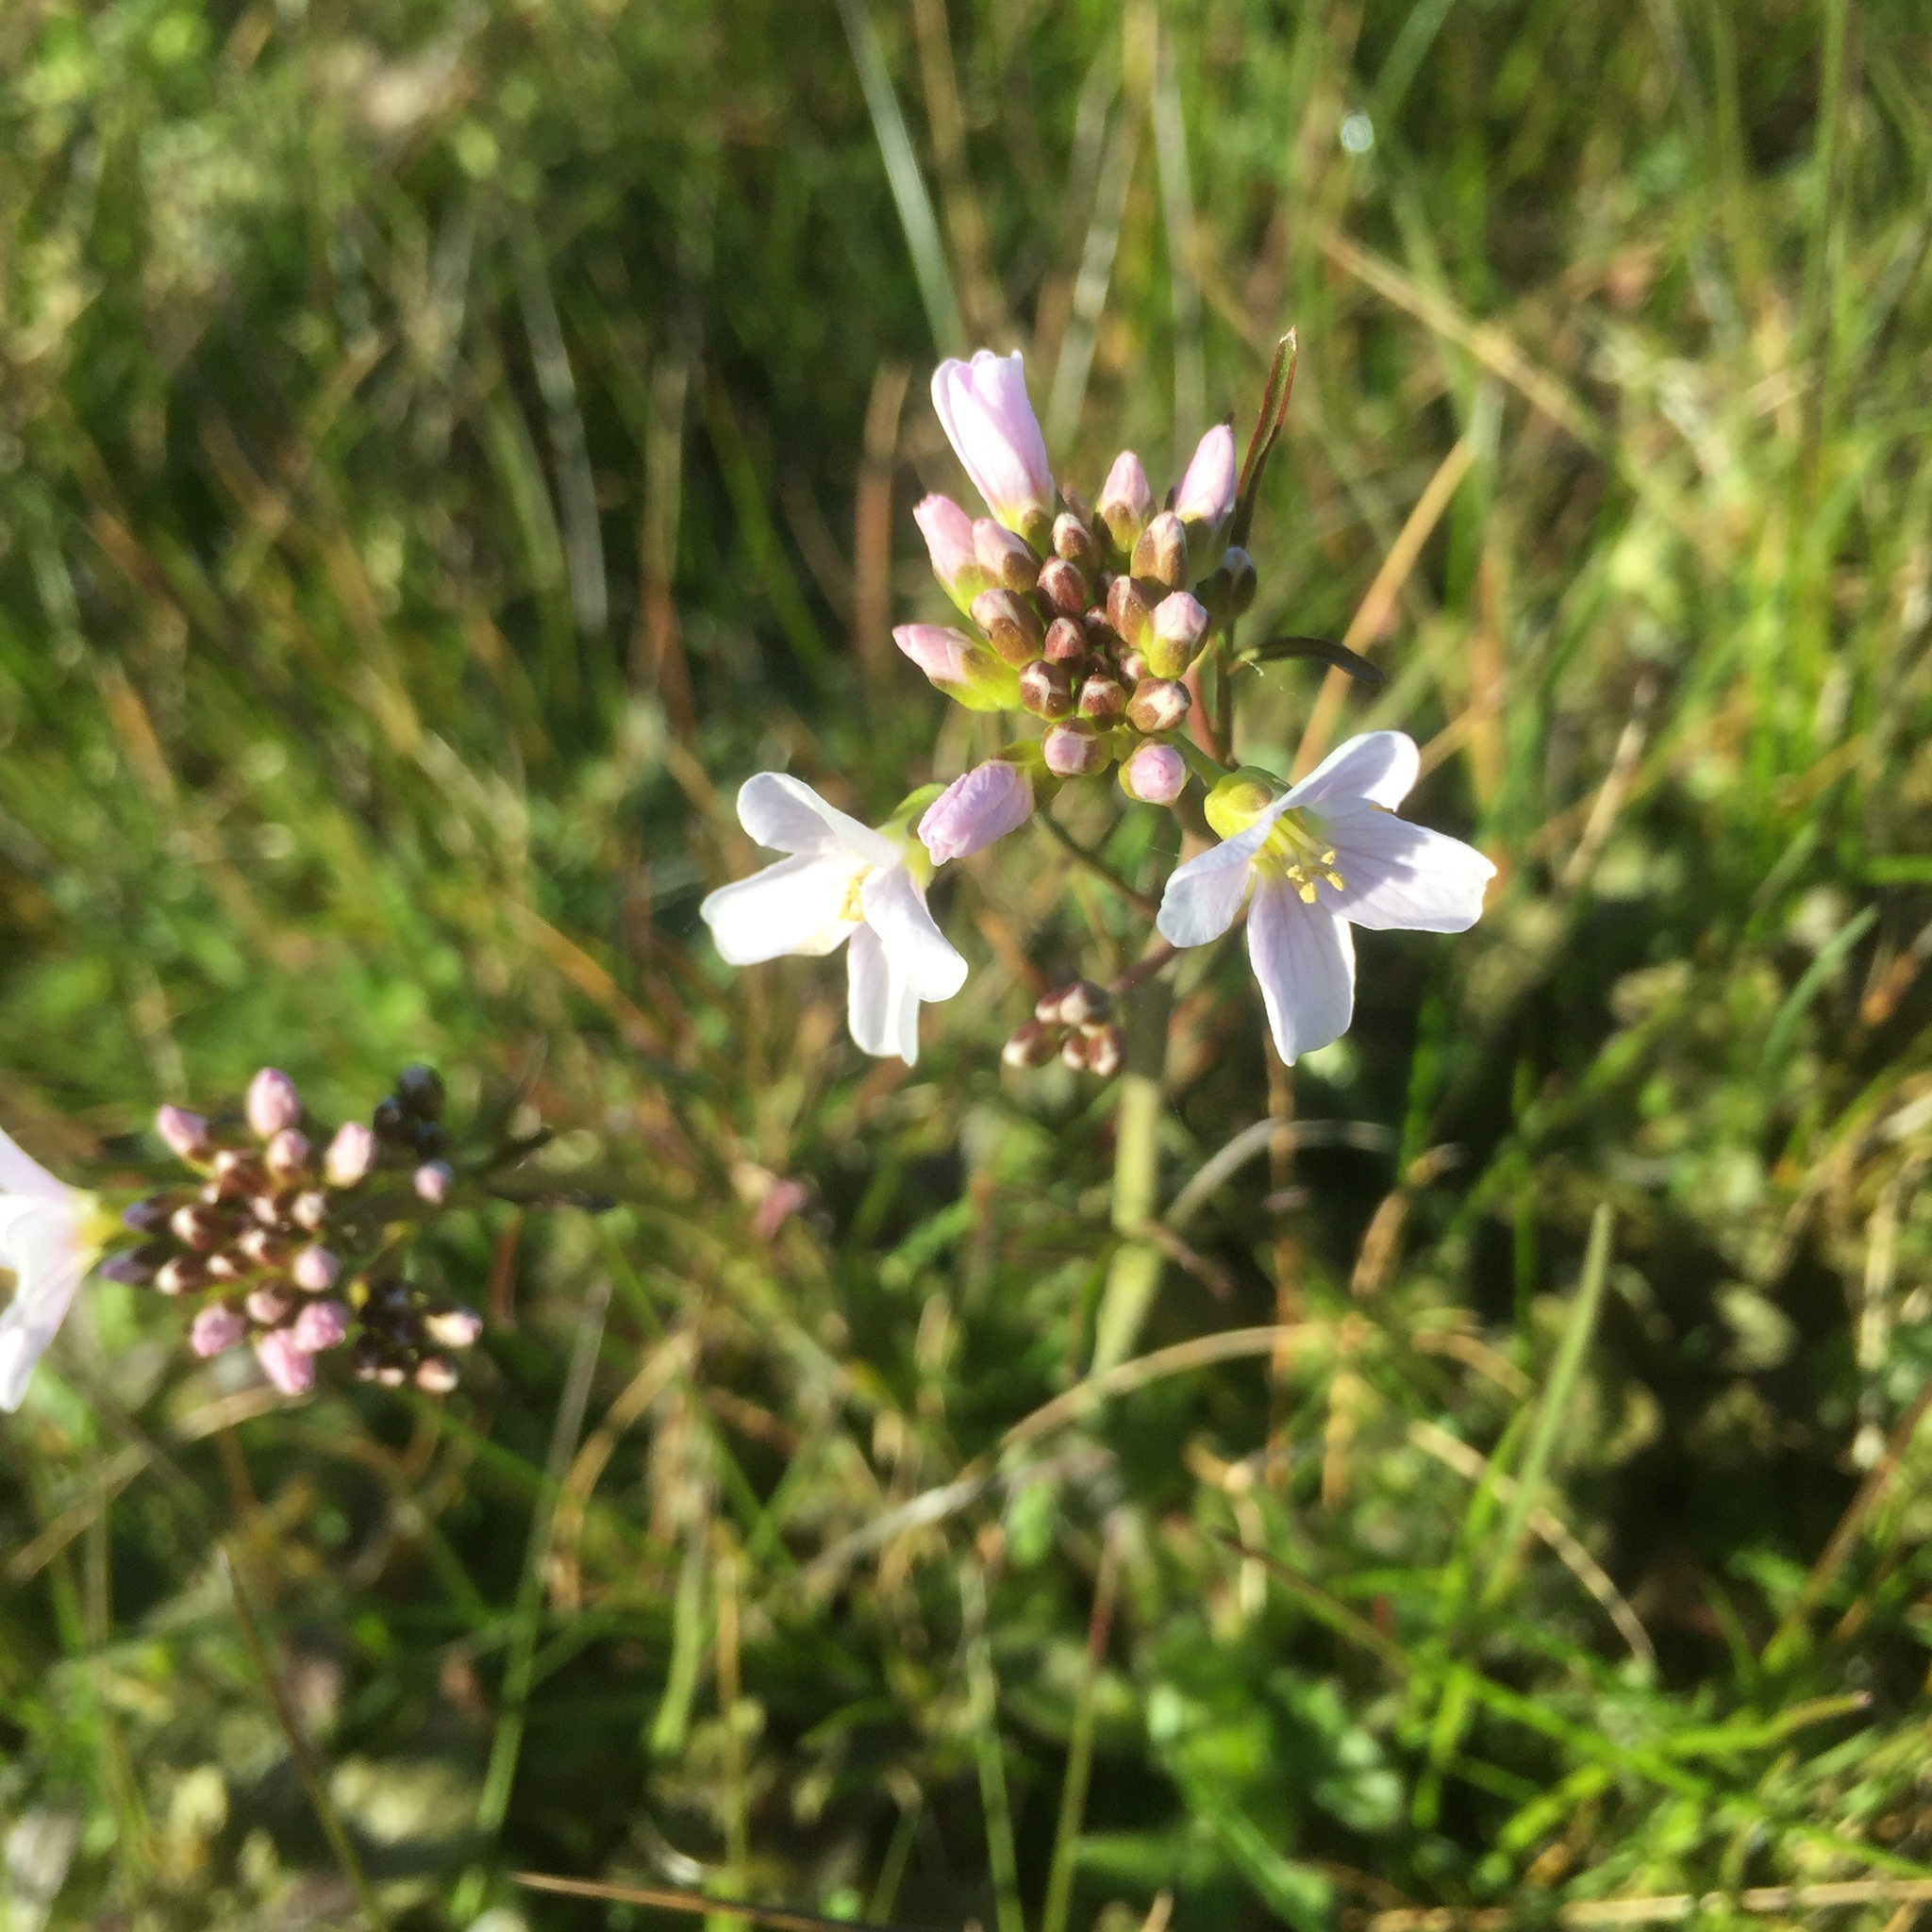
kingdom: Plantae
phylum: Tracheophyta
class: Magnoliopsida
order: Brassicales
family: Brassicaceae
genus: Cardamine
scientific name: Cardamine pratensis
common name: Cuckoo flower
